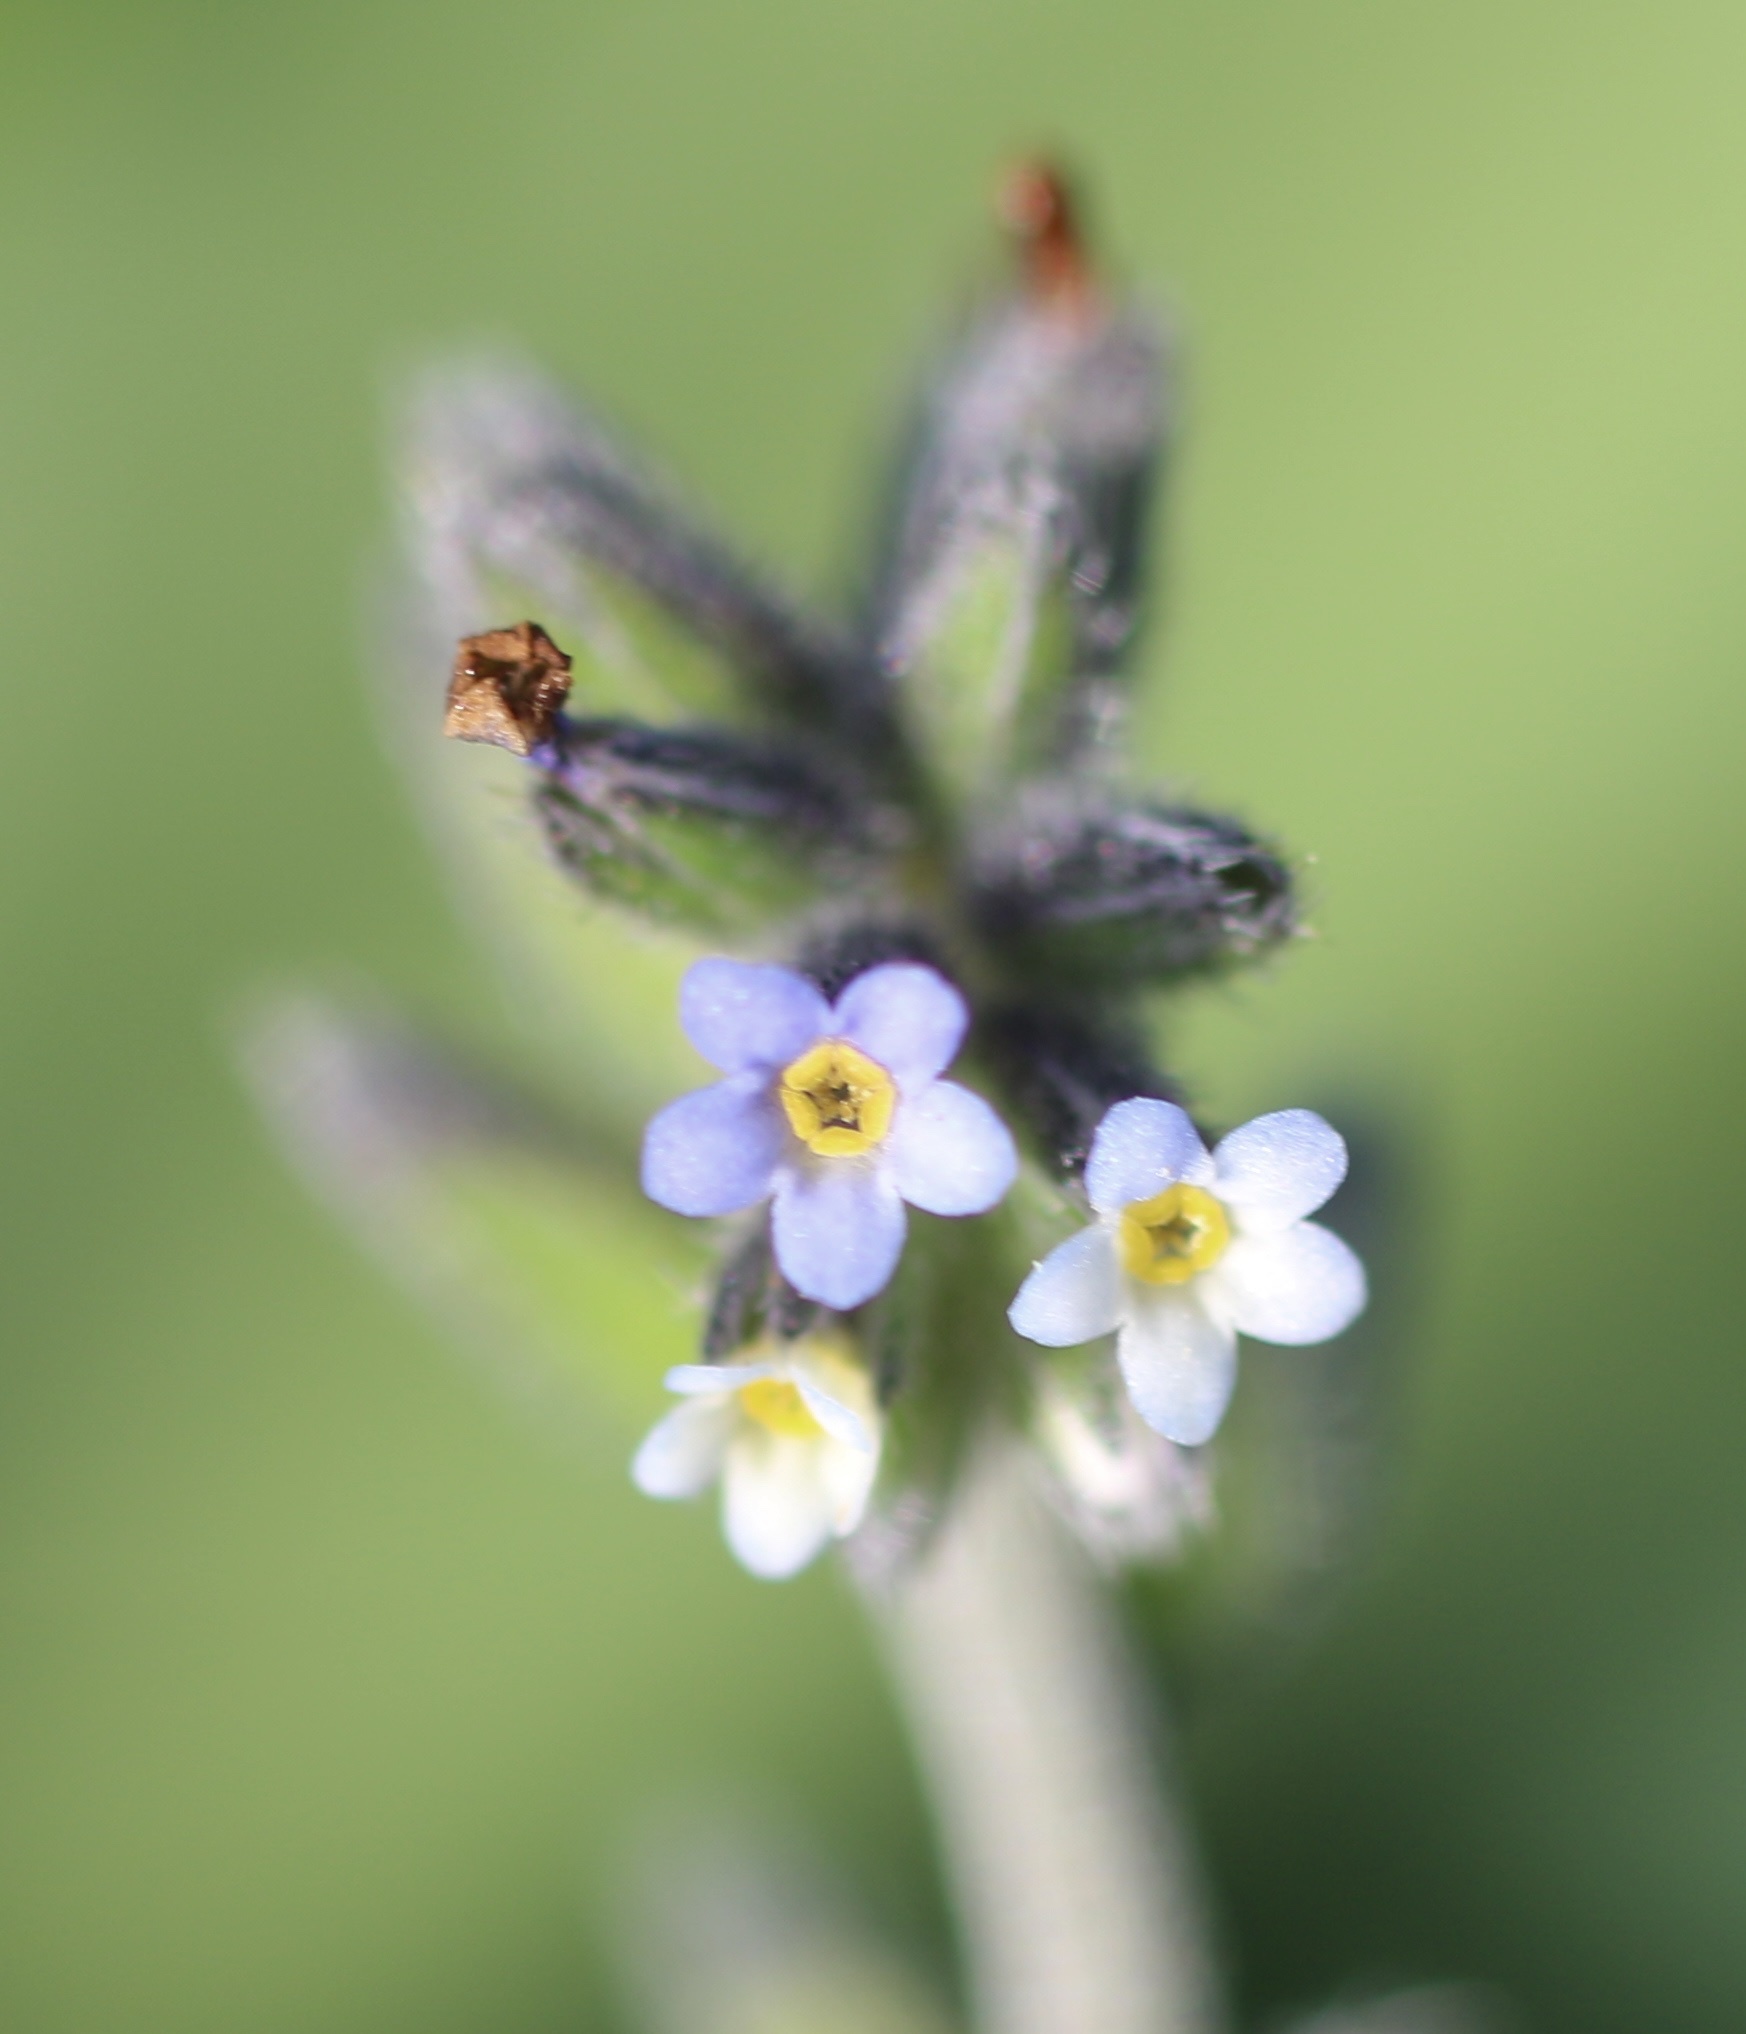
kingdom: Plantae
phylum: Tracheophyta
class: Magnoliopsida
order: Boraginales
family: Boraginaceae
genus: Myosotis
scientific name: Myosotis discolor
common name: Changing forget-me-not
